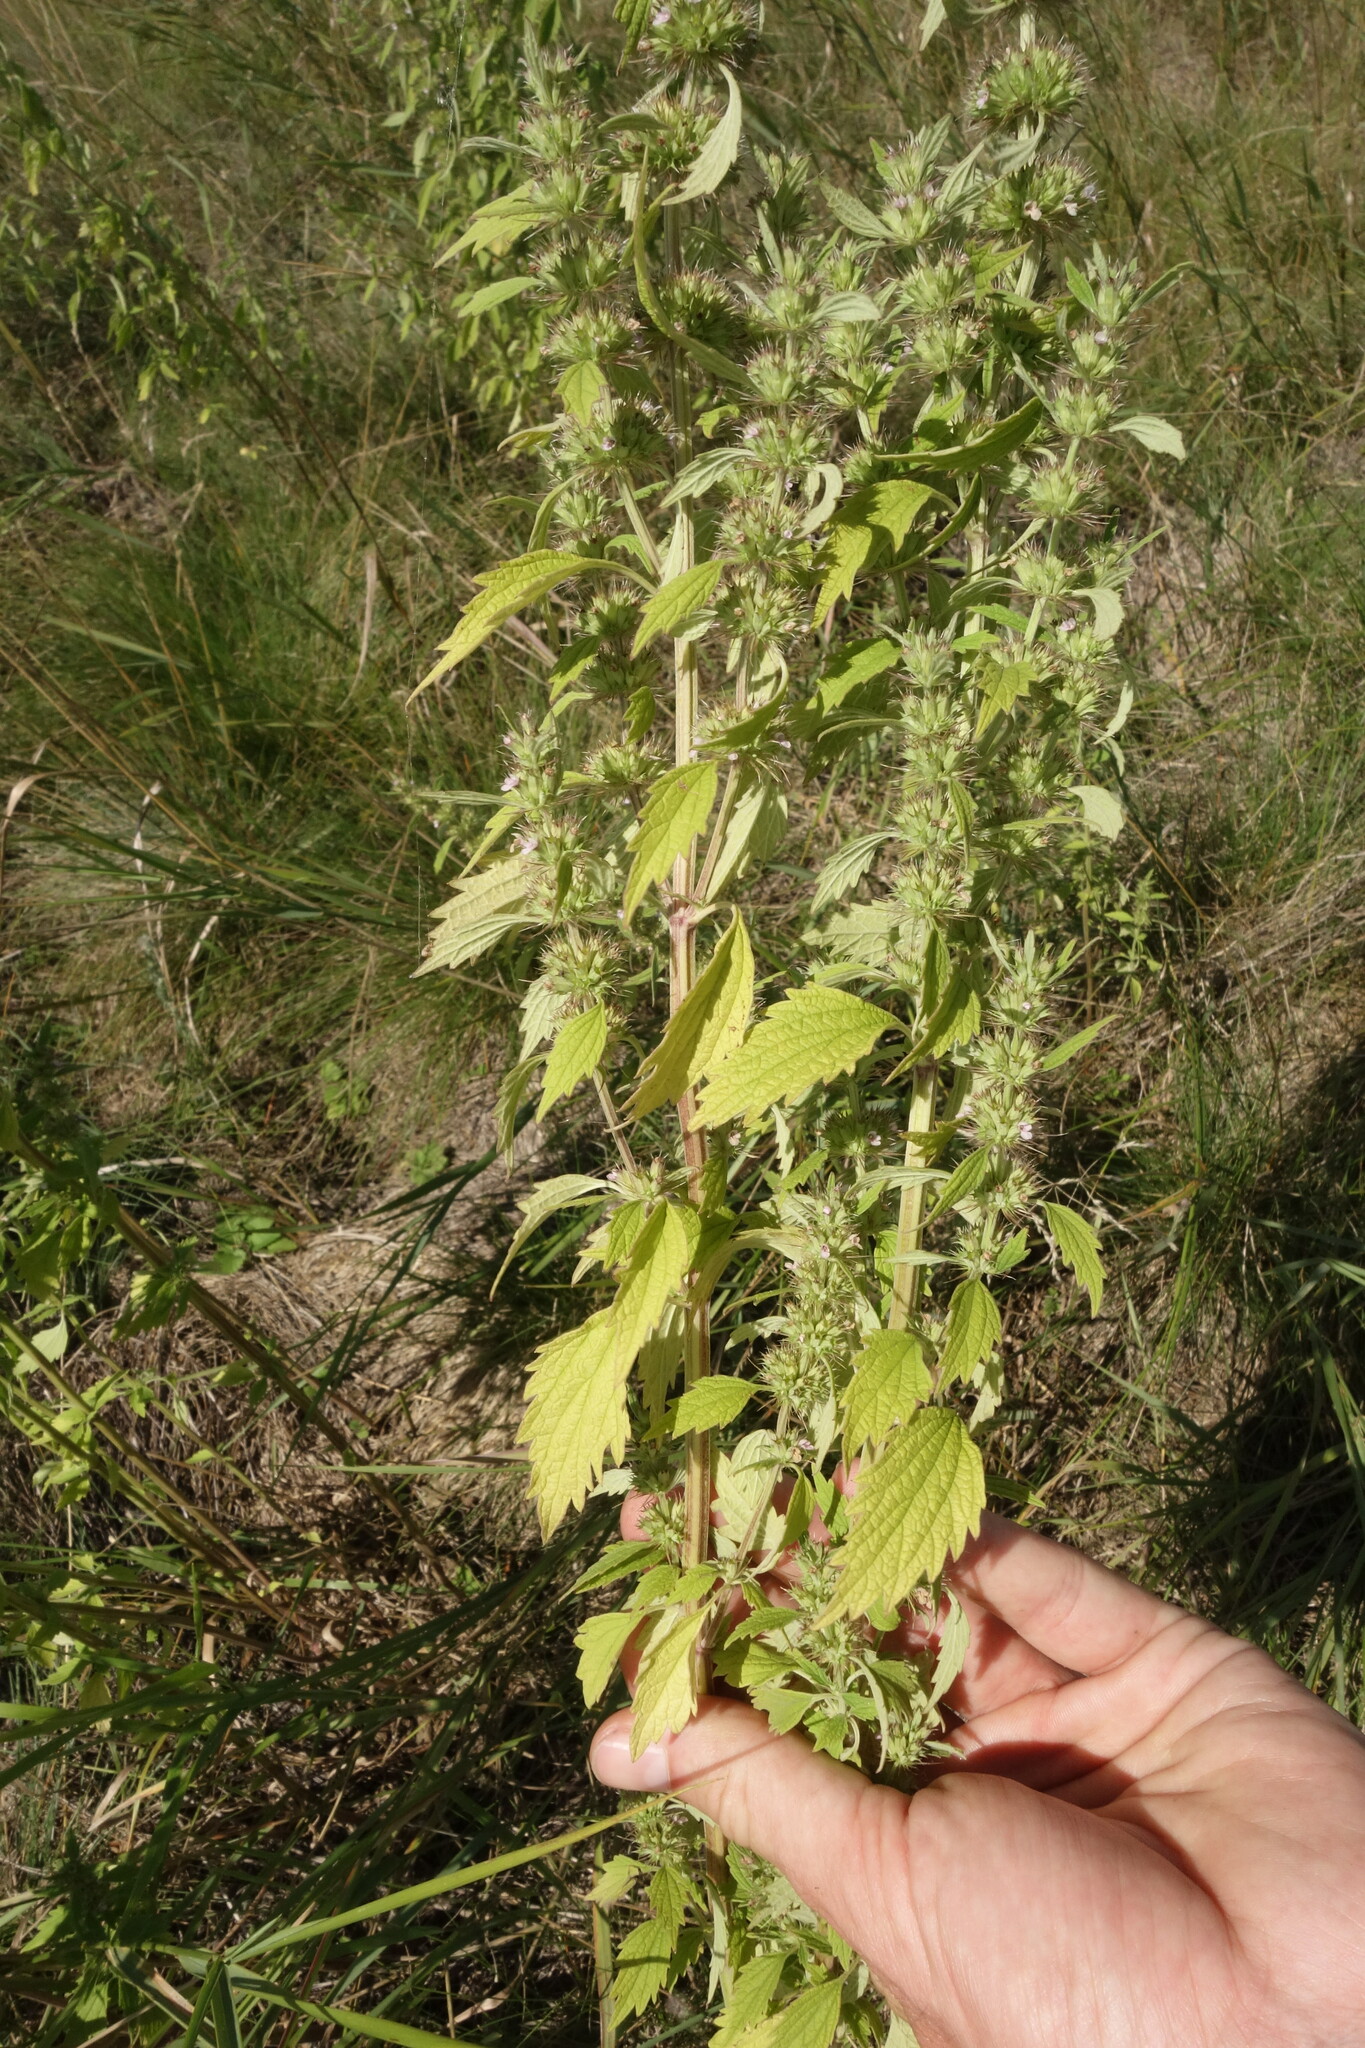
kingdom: Plantae
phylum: Tracheophyta
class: Magnoliopsida
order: Lamiales
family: Lamiaceae
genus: Chaiturus
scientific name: Chaiturus marrubiastrum
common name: Lion's tail
